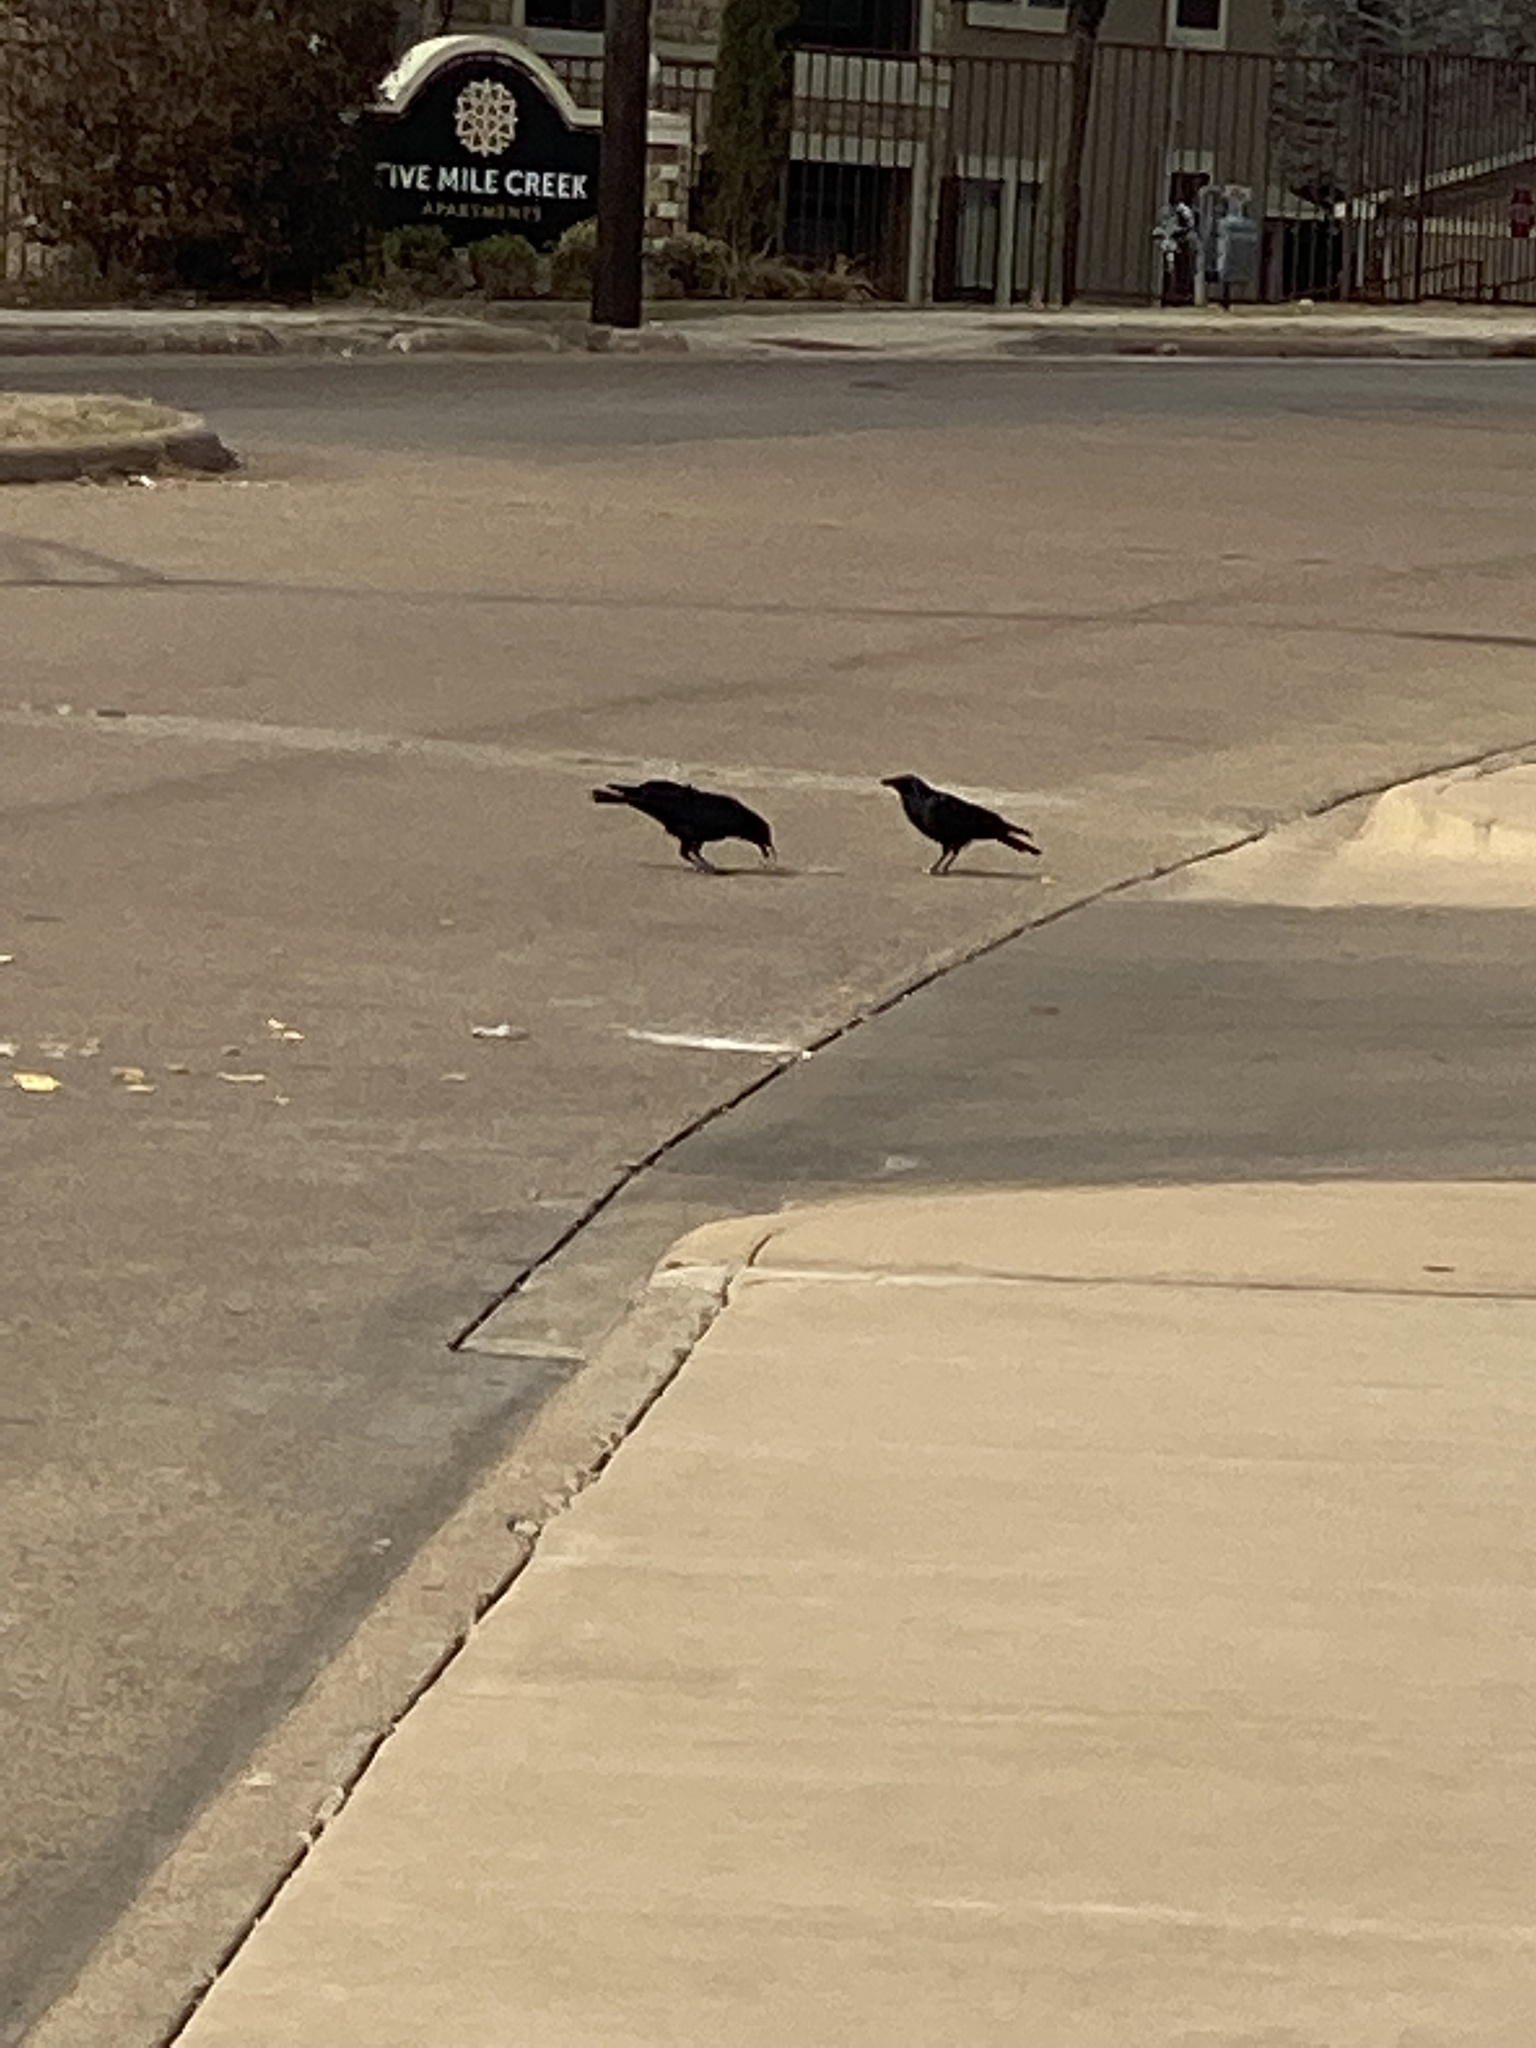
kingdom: Animalia
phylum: Chordata
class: Aves
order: Passeriformes
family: Corvidae
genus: Corvus
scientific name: Corvus brachyrhynchos
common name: American crow
